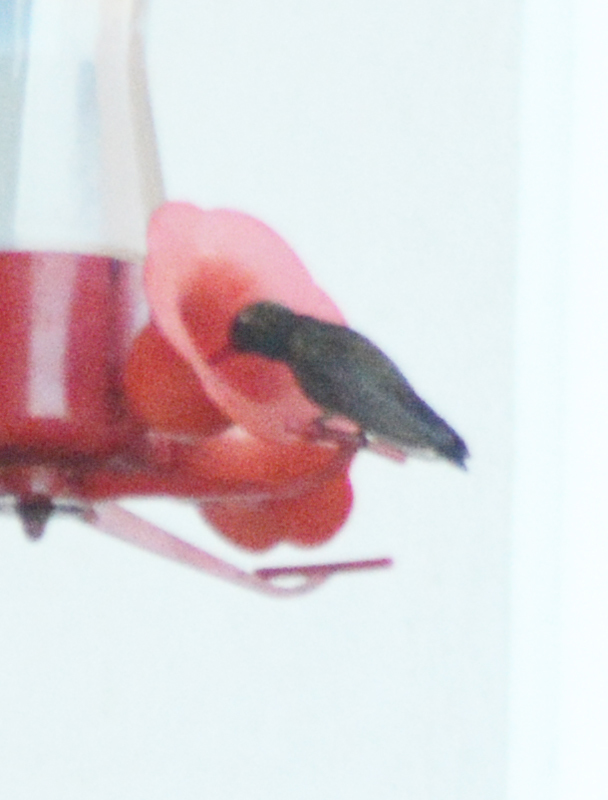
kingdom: Animalia
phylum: Chordata
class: Aves
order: Apodiformes
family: Trochilidae
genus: Cynanthus
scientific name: Cynanthus latirostris
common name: Broad-billed hummingbird
